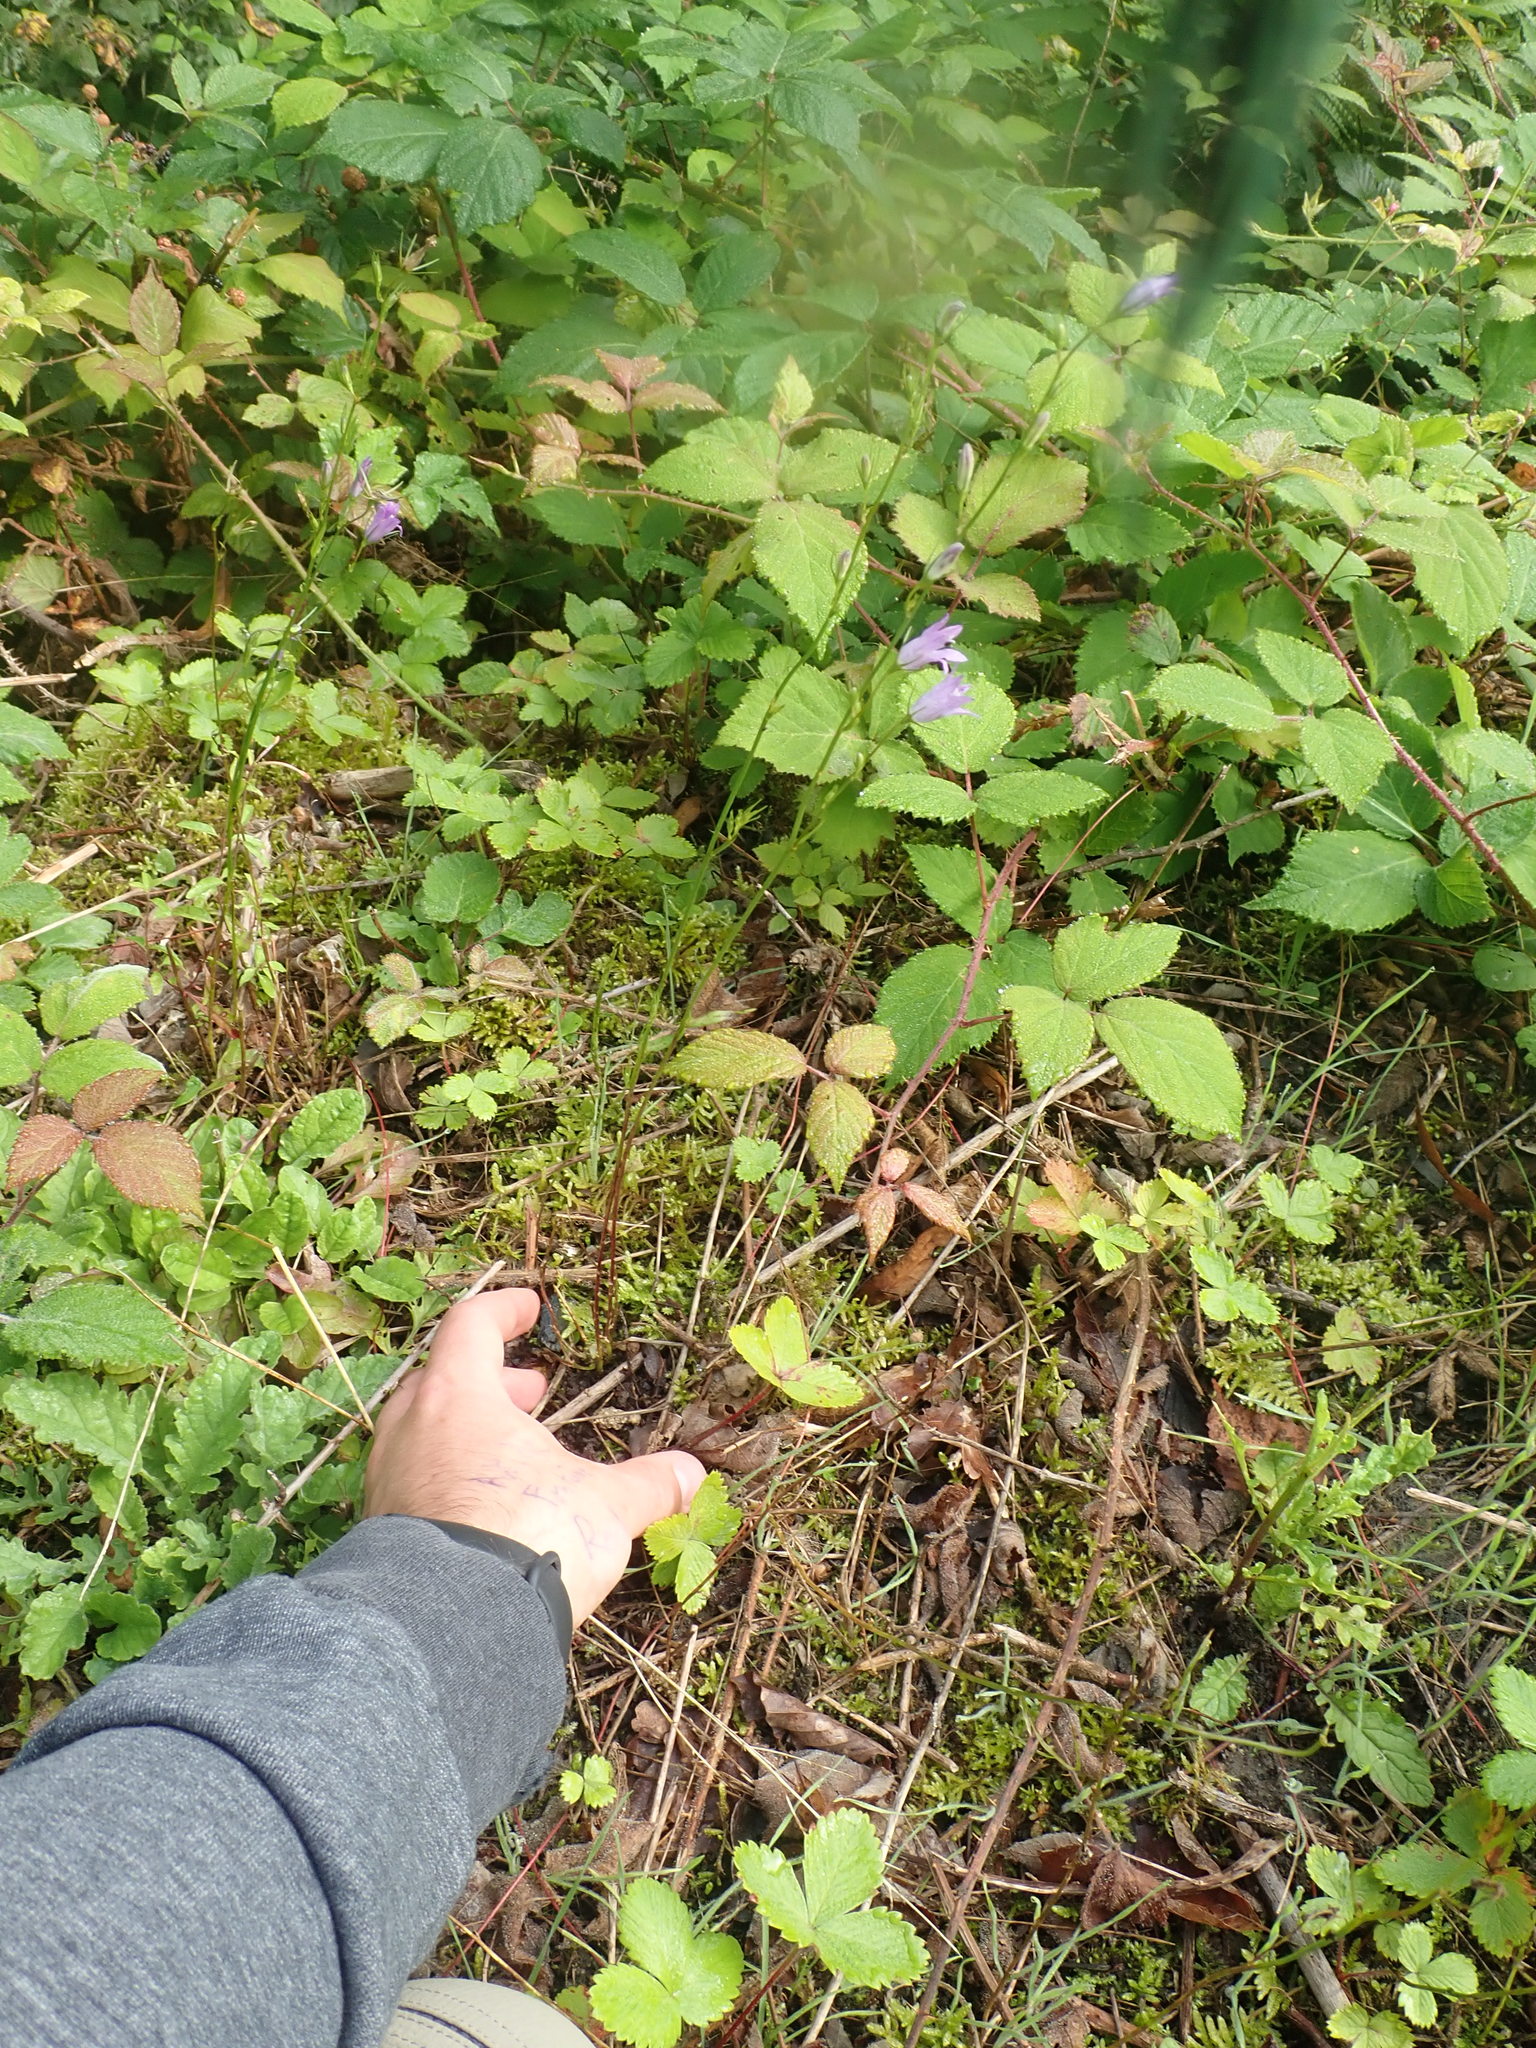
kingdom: Plantae
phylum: Tracheophyta
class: Magnoliopsida
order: Asterales
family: Campanulaceae
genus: Campanula
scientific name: Campanula rapunculus
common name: Rampion bellflower
